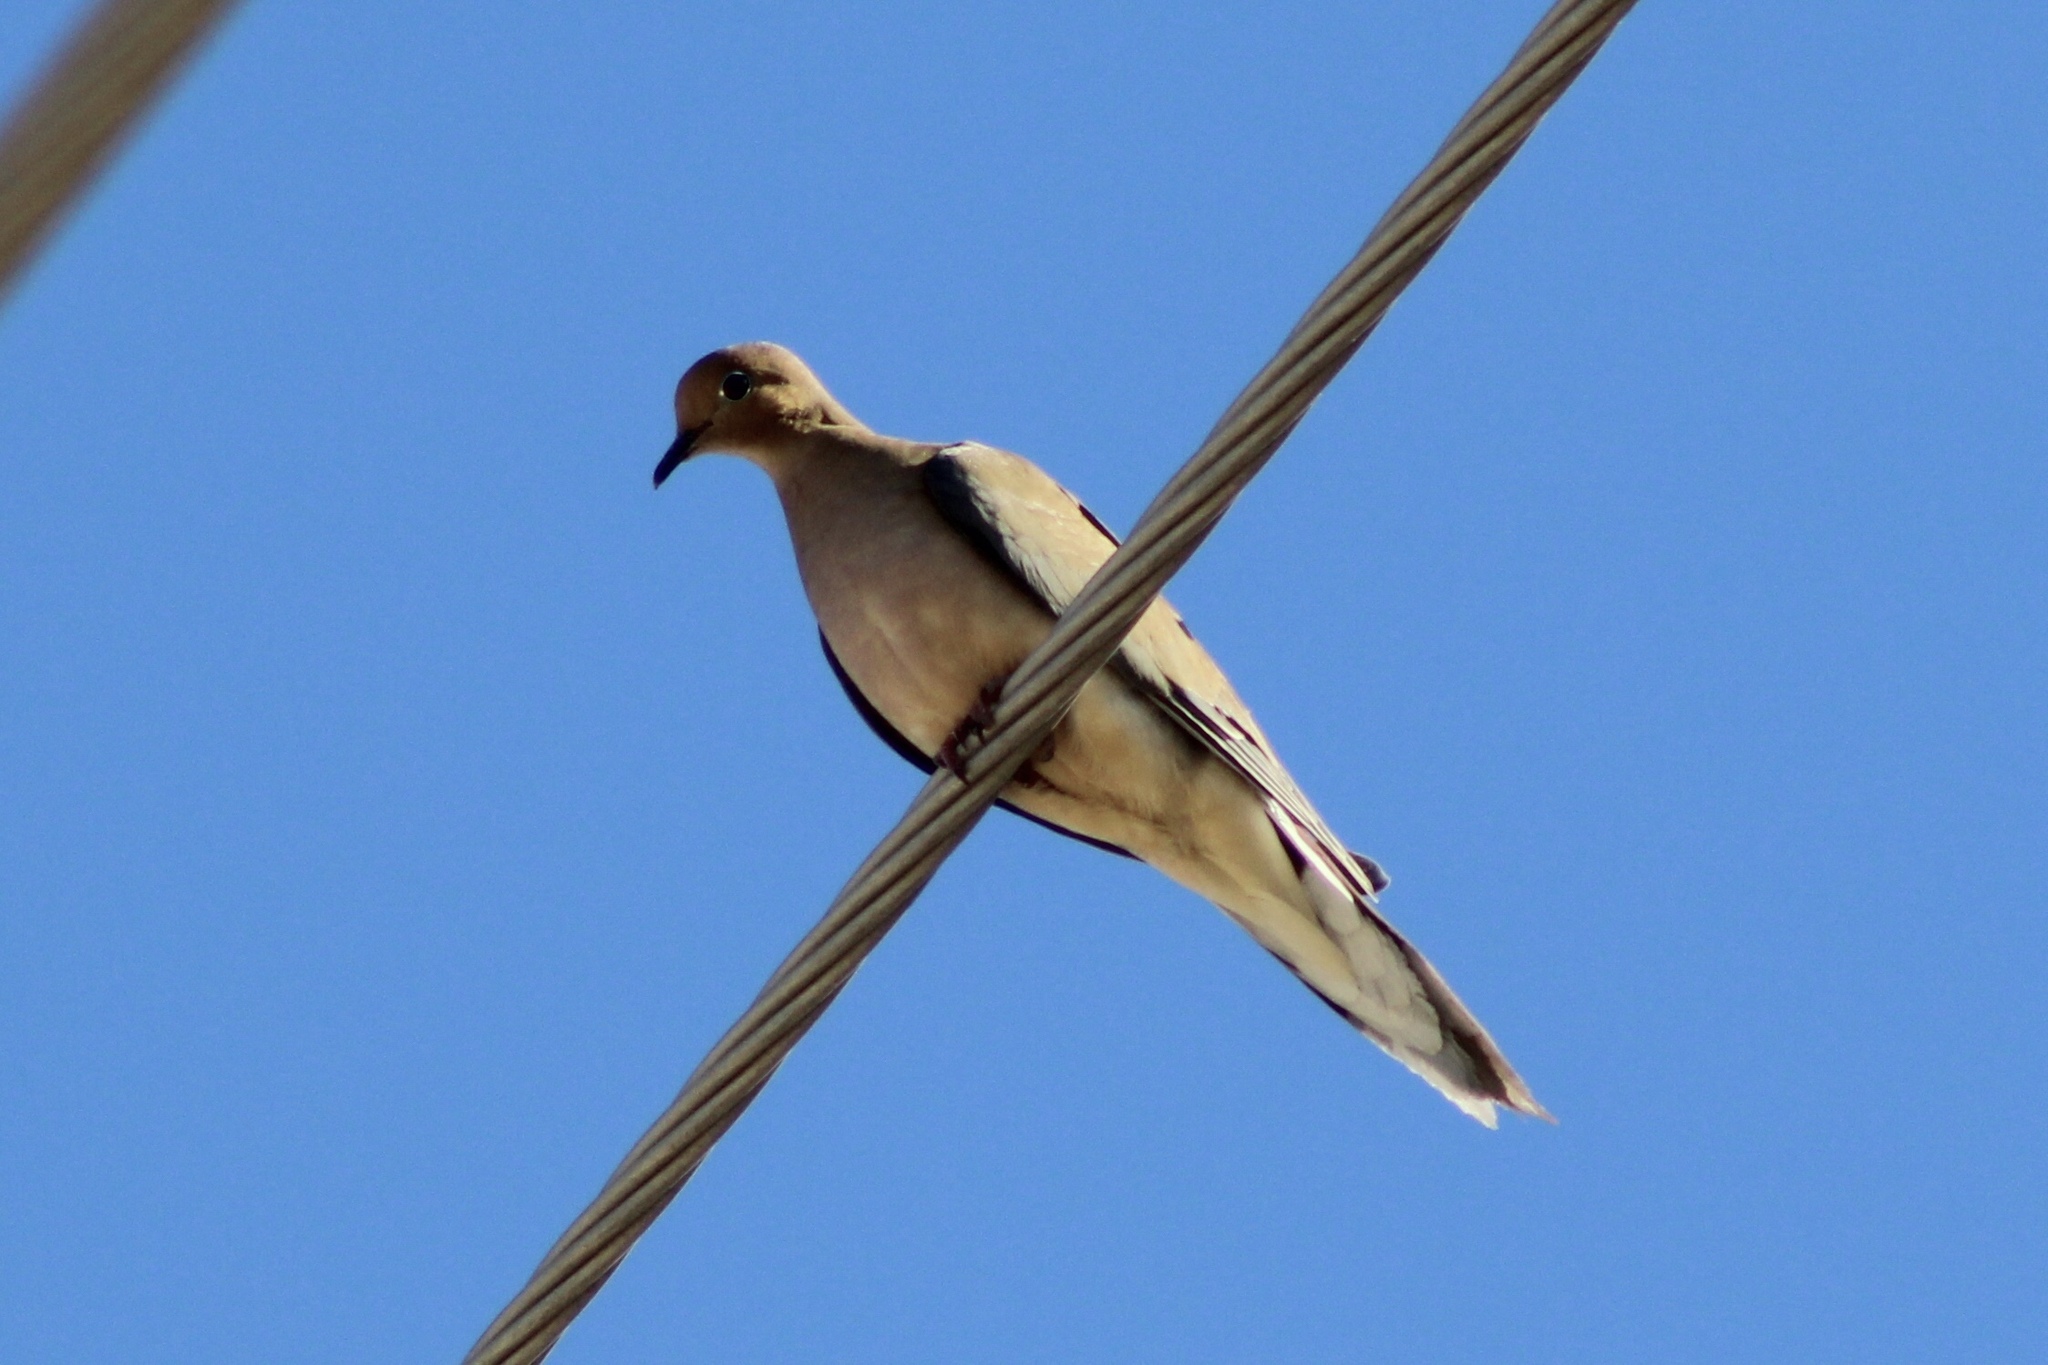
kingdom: Animalia
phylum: Chordata
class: Aves
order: Columbiformes
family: Columbidae
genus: Zenaida
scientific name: Zenaida macroura
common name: Mourning dove
